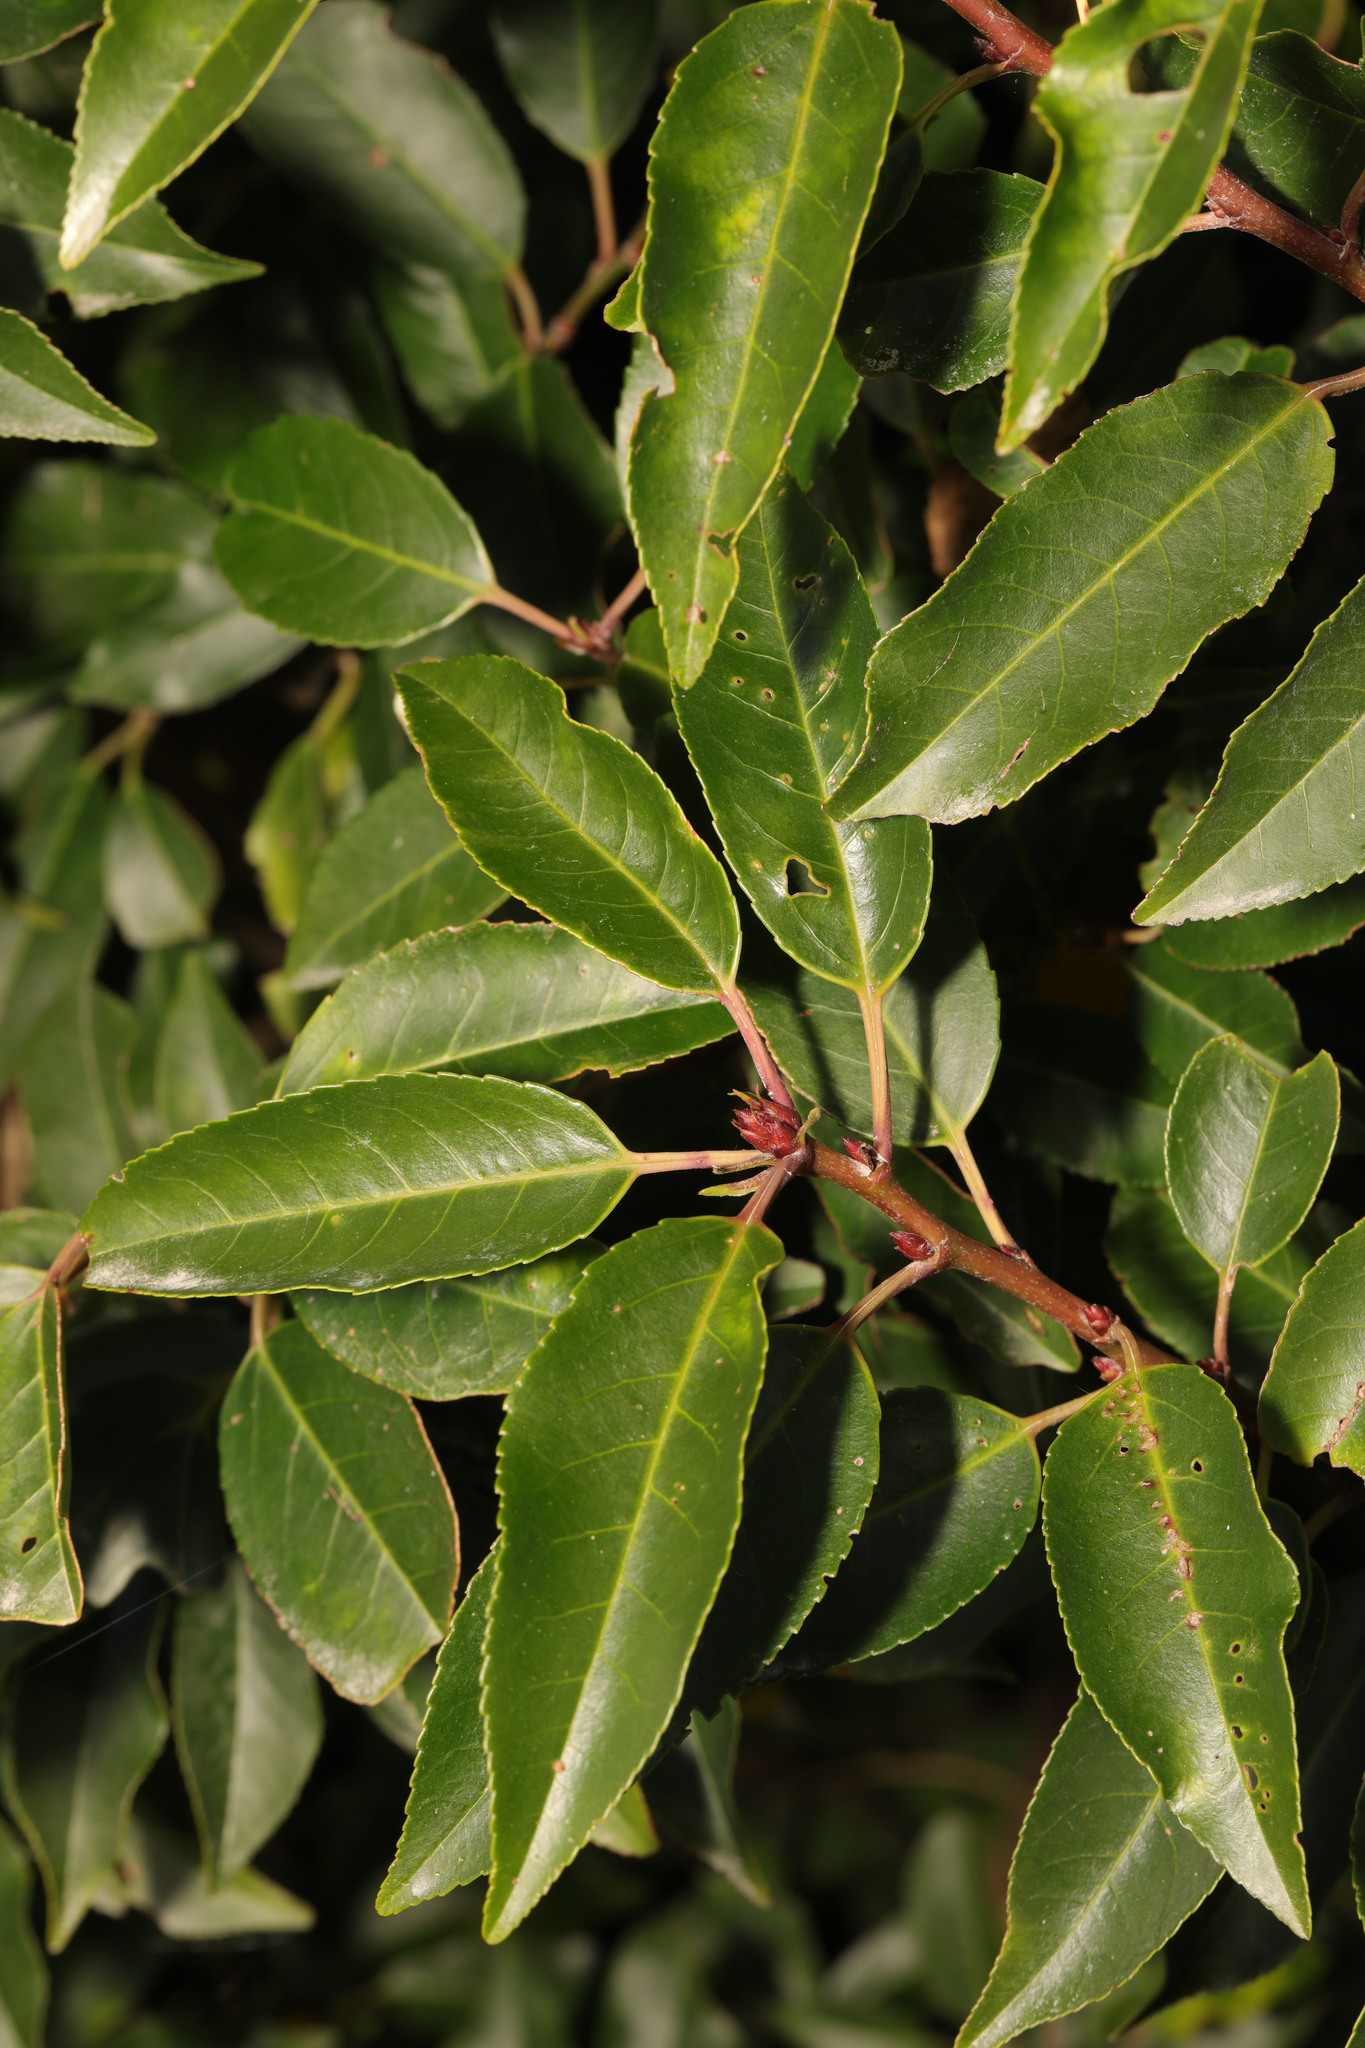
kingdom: Plantae
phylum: Tracheophyta
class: Magnoliopsida
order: Rosales
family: Rosaceae
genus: Prunus
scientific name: Prunus lusitanica
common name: Portugal laurel
